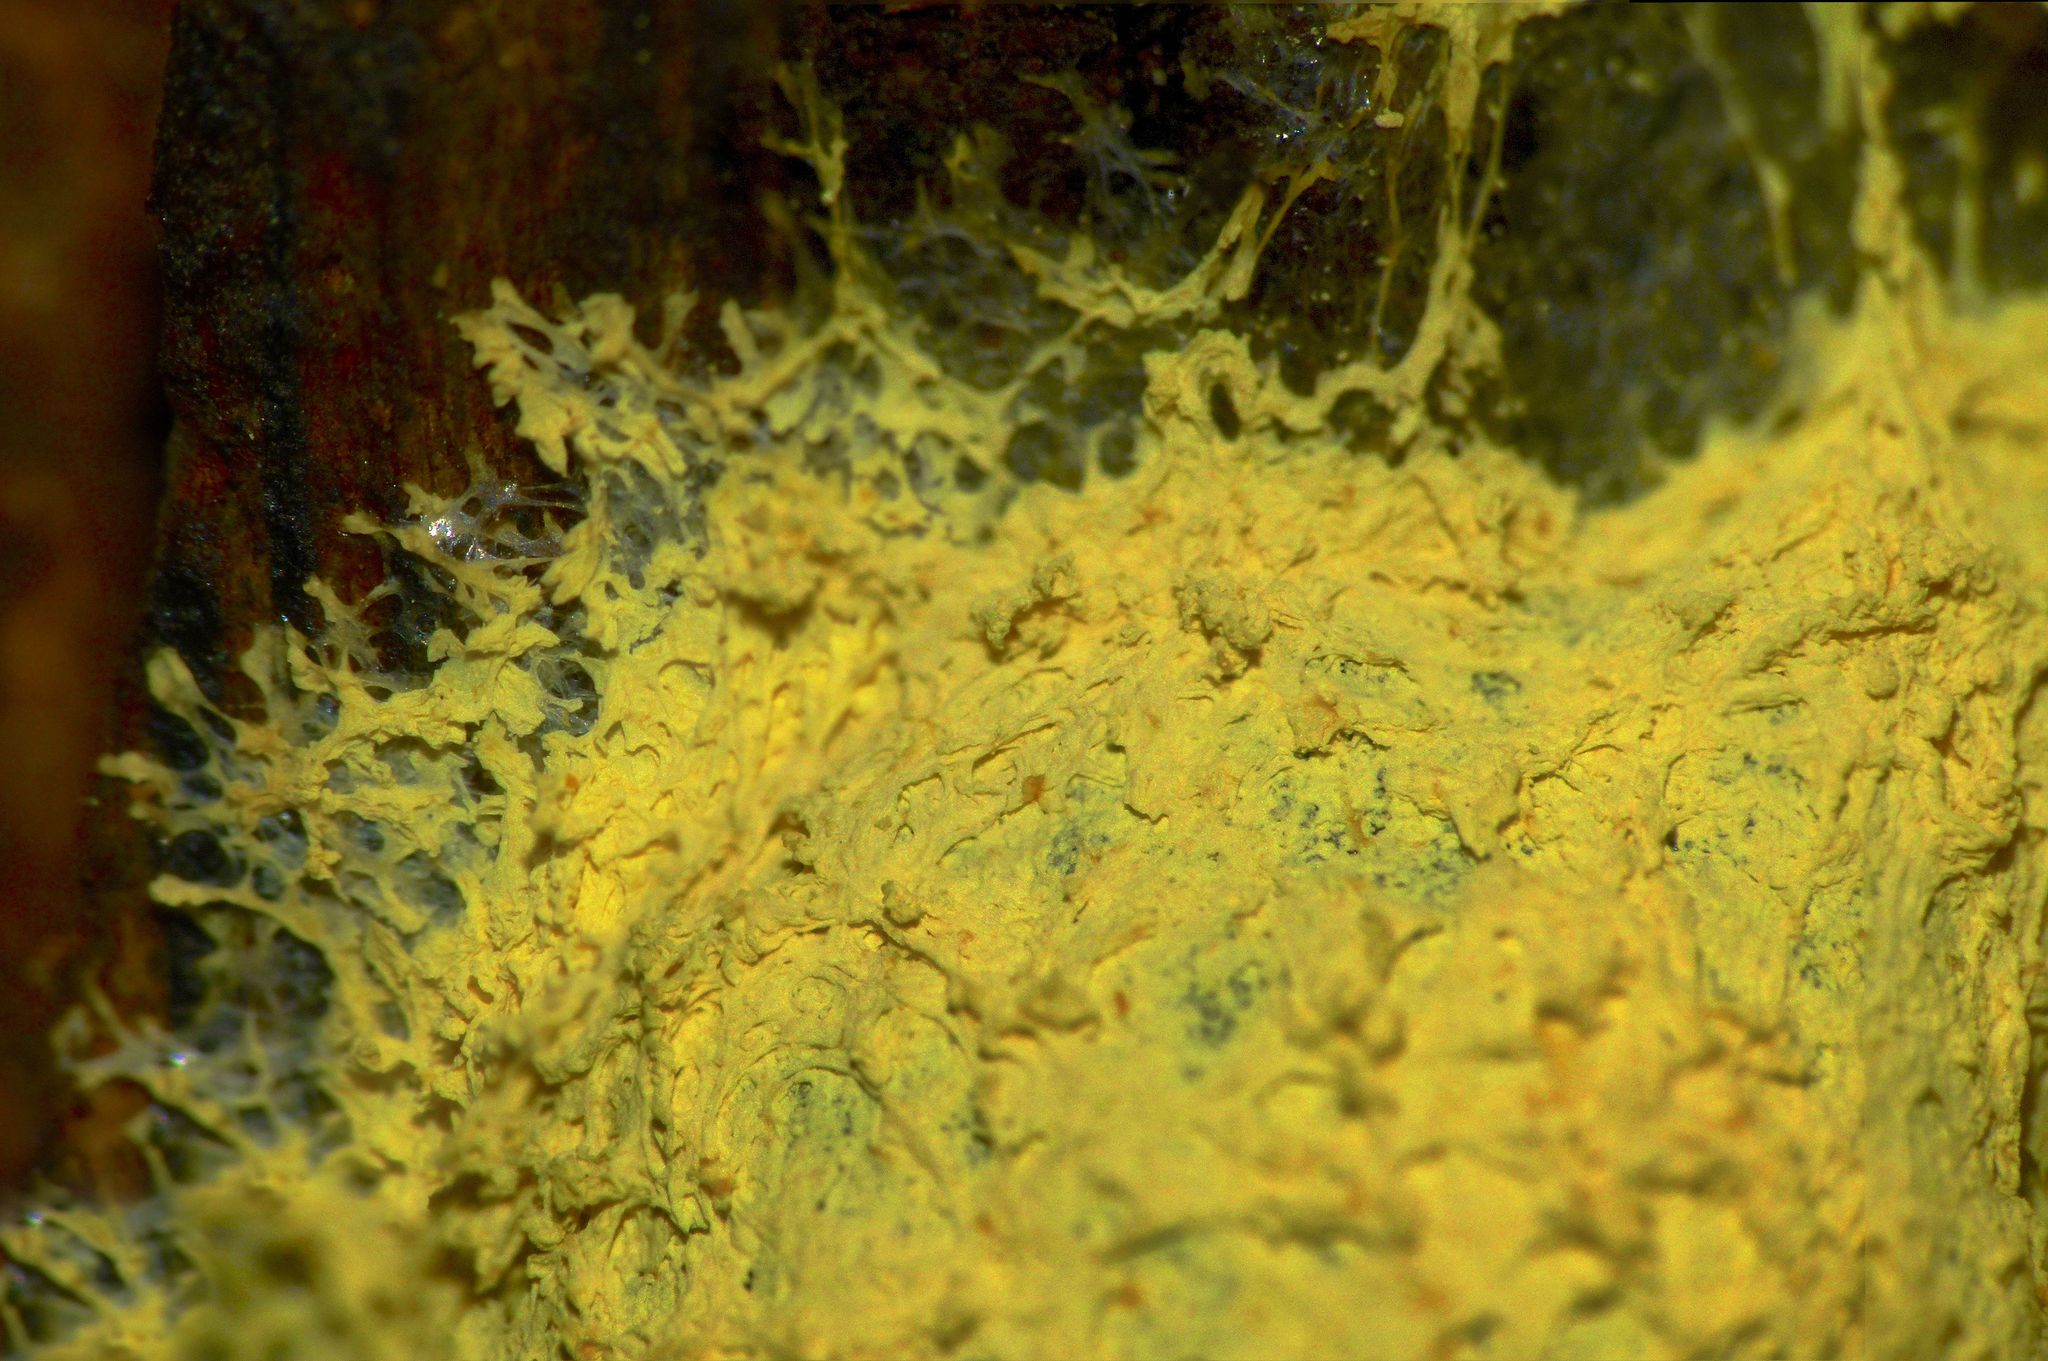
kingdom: Protozoa
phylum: Mycetozoa
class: Myxomycetes
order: Physarales
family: Physaraceae
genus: Fuligo
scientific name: Fuligo septica
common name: Dog vomit slime mold
